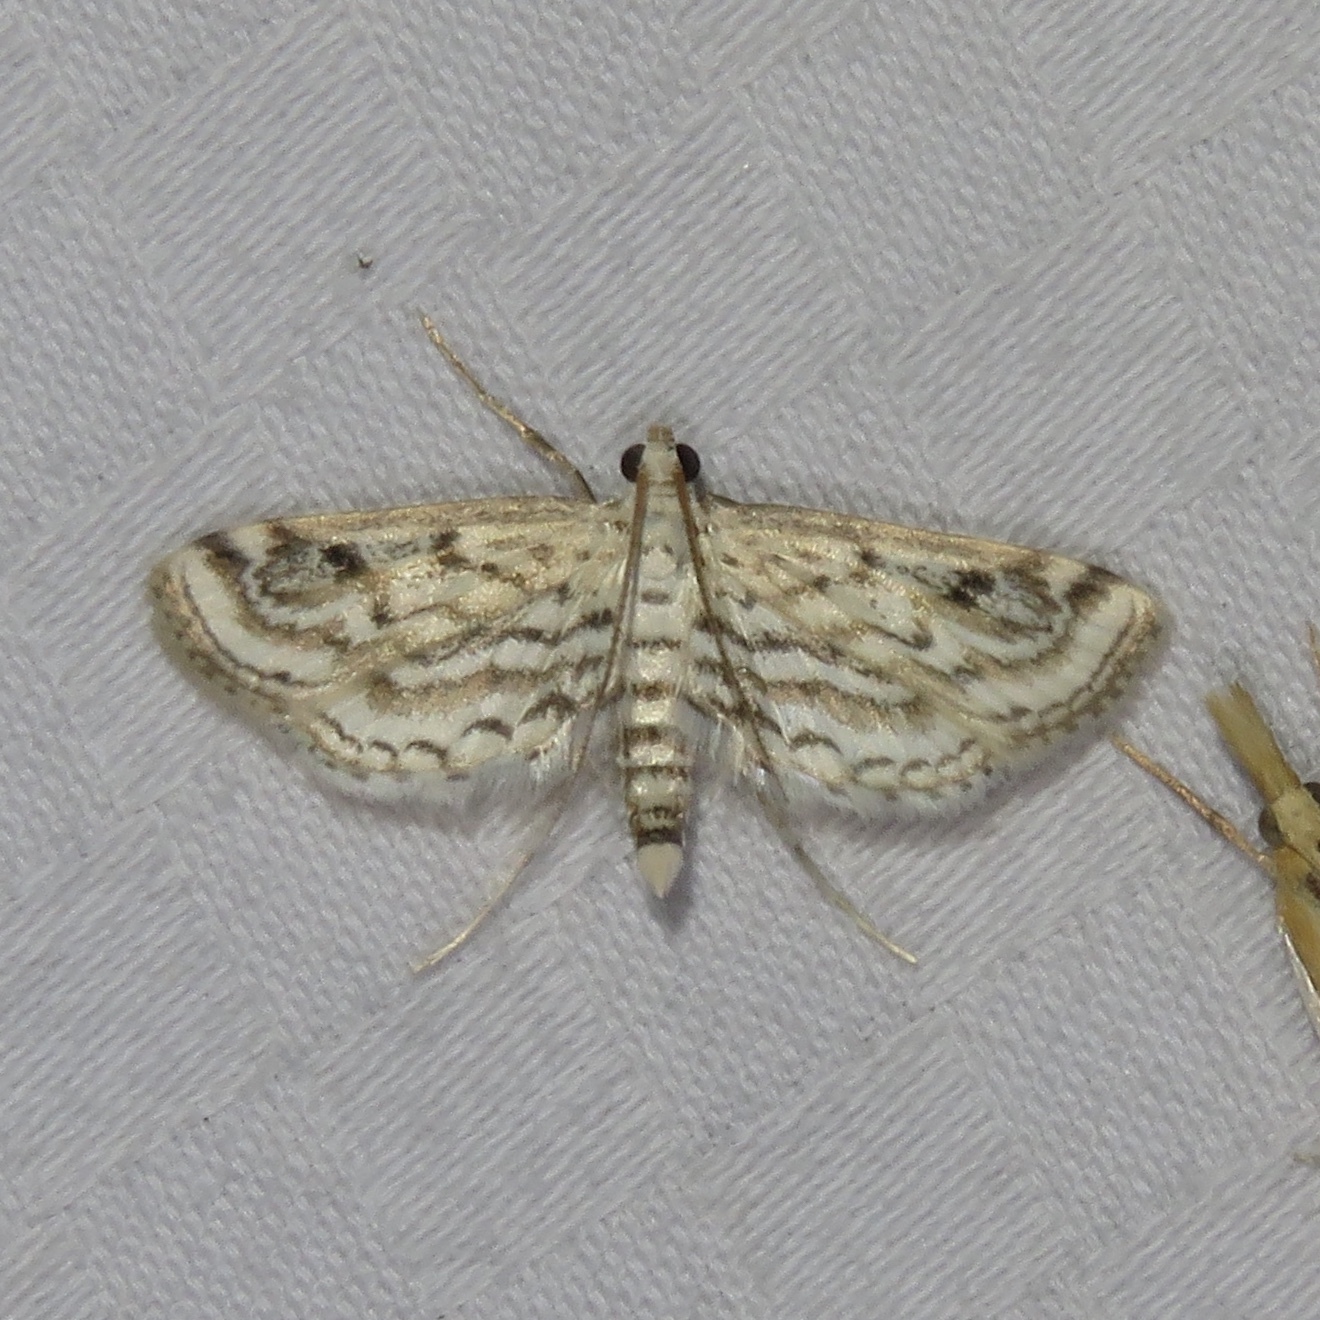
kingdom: Animalia
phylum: Arthropoda
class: Insecta
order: Lepidoptera
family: Crambidae
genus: Parapoynx
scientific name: Parapoynx allionealis
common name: Bladderwort casemaker
